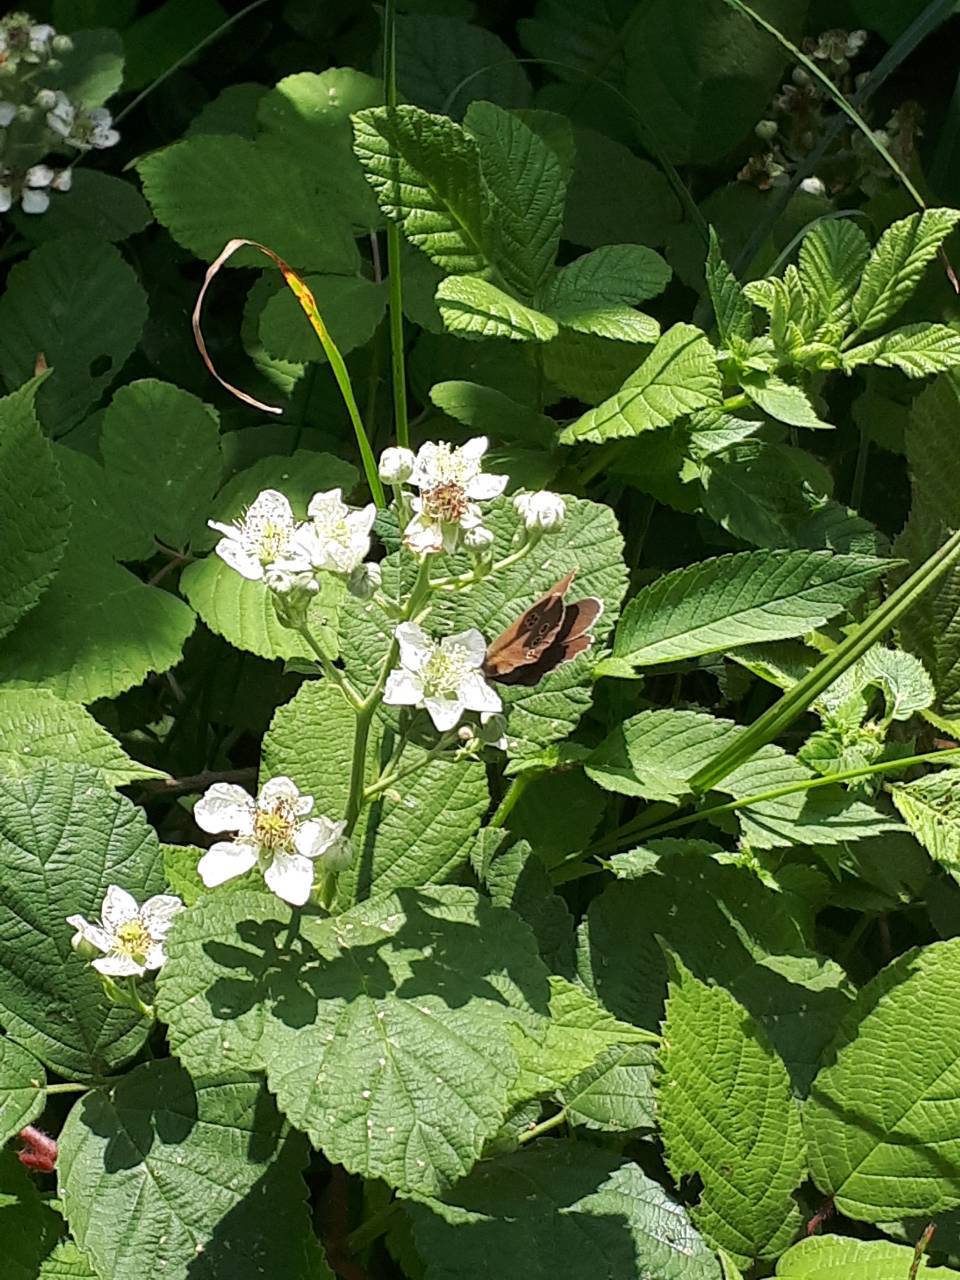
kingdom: Animalia
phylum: Arthropoda
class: Insecta
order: Lepidoptera
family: Nymphalidae
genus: Aphantopus
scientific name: Aphantopus hyperantus
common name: Ringlet
